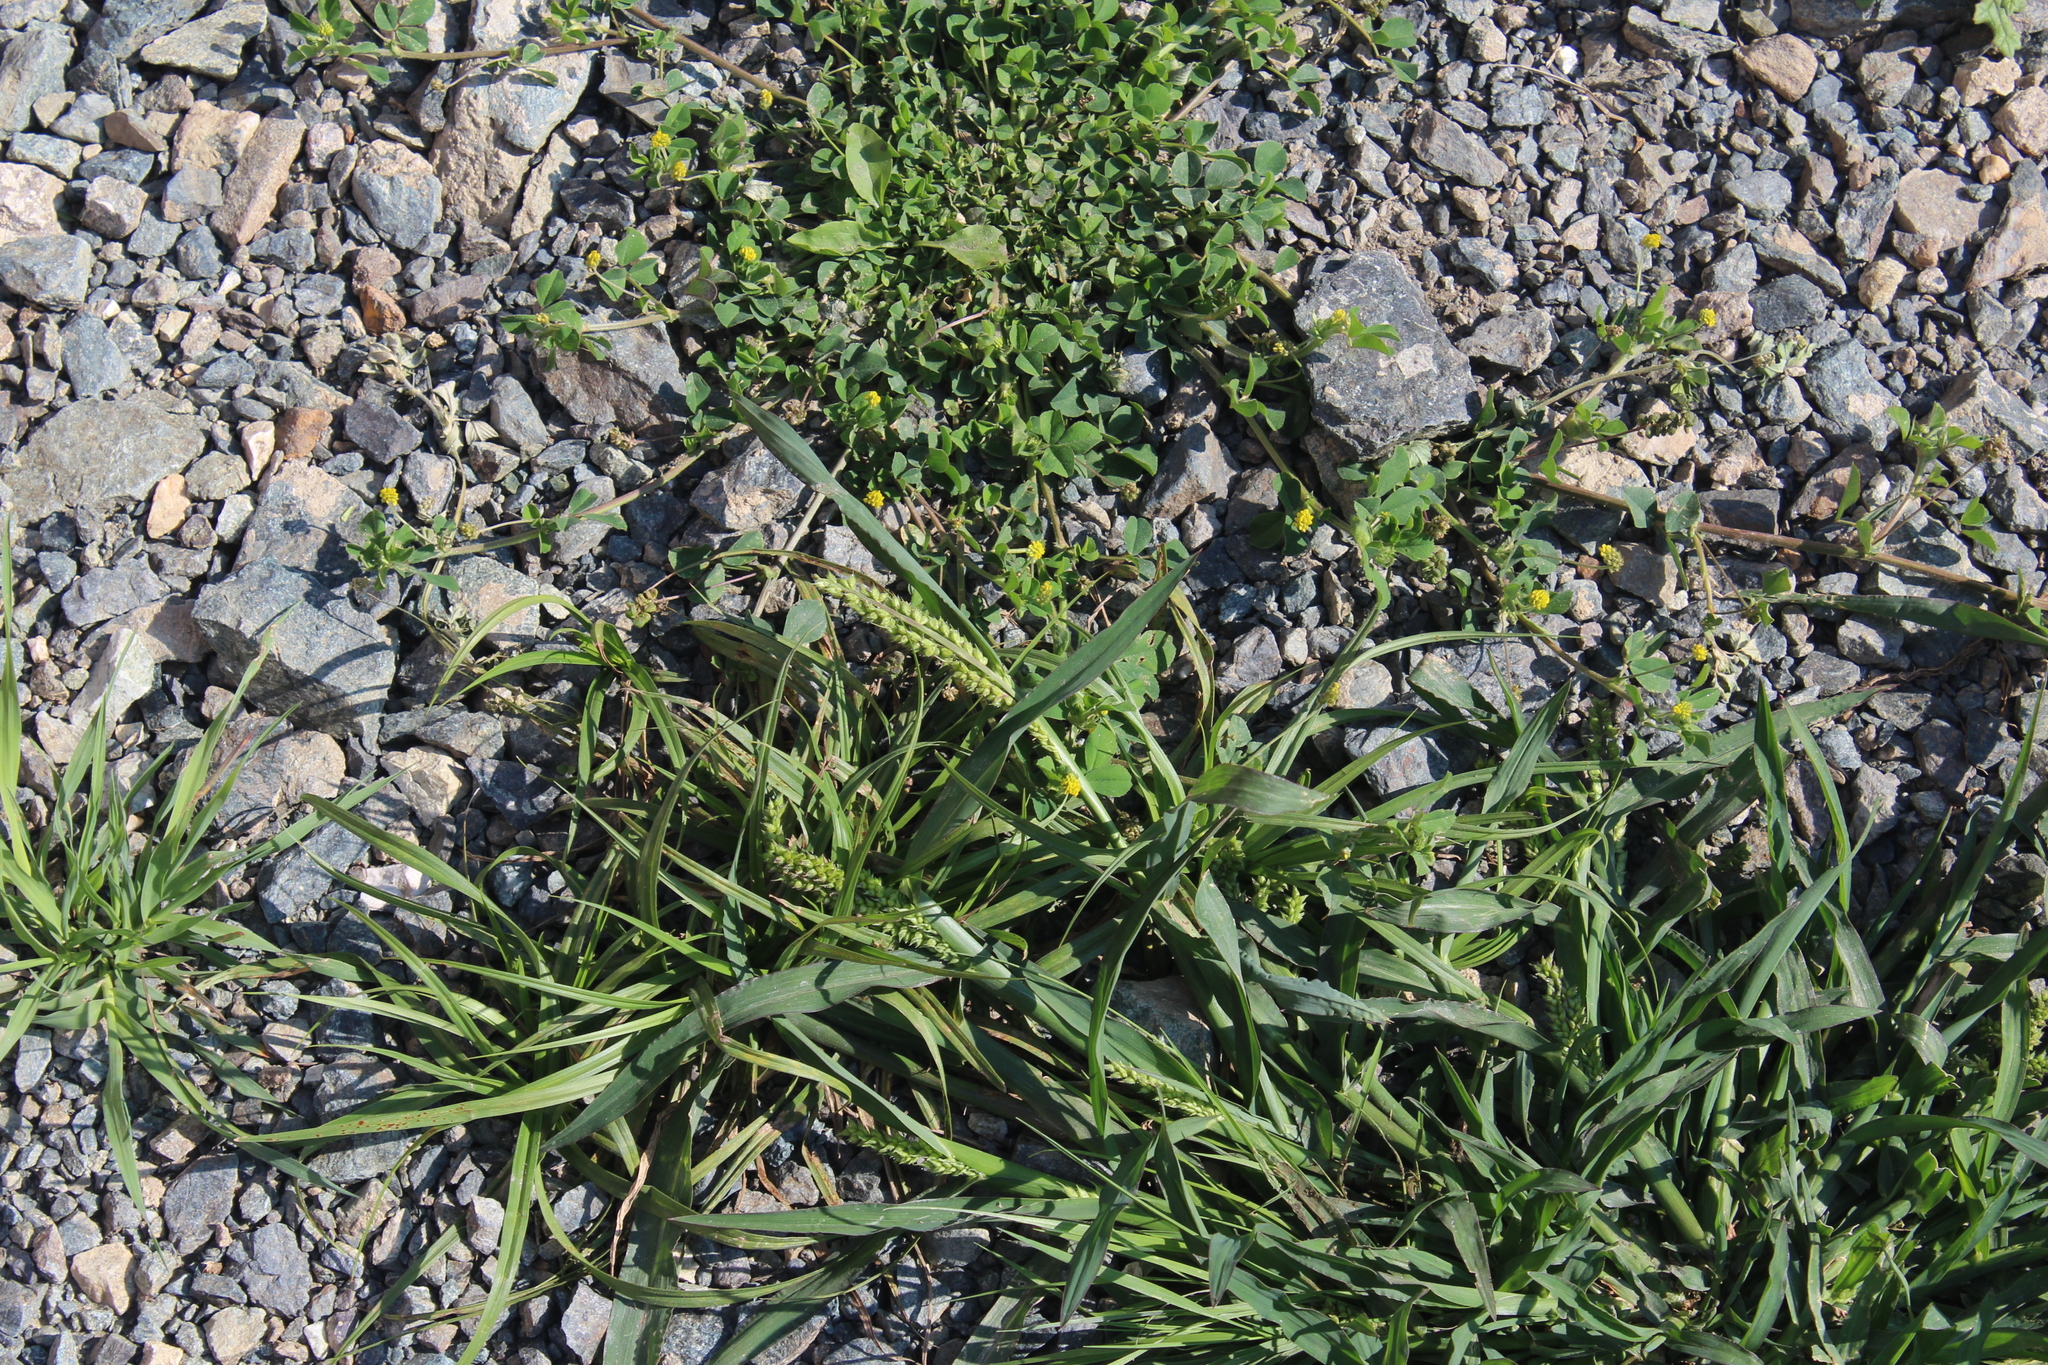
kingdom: Plantae
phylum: Tracheophyta
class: Liliopsida
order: Poales
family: Poaceae
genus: Echinochloa
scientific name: Echinochloa crus-galli
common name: Cockspur
